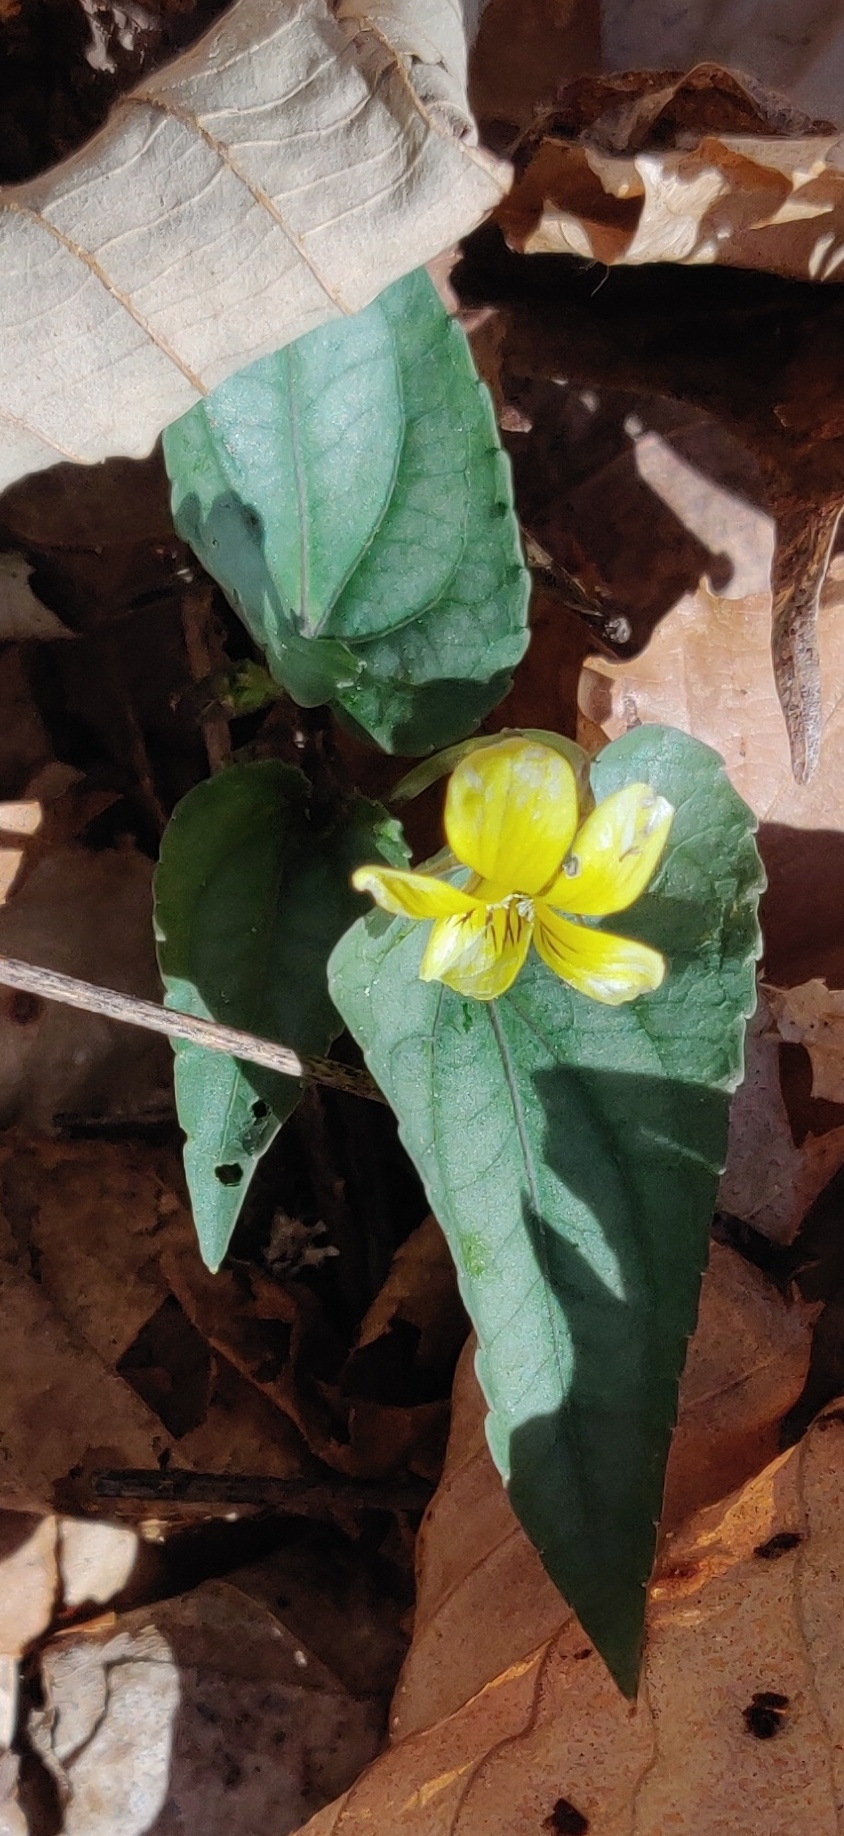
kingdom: Plantae
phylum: Tracheophyta
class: Magnoliopsida
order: Malpighiales
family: Violaceae
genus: Viola
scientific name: Viola hastata
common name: Spear-leaf violet
